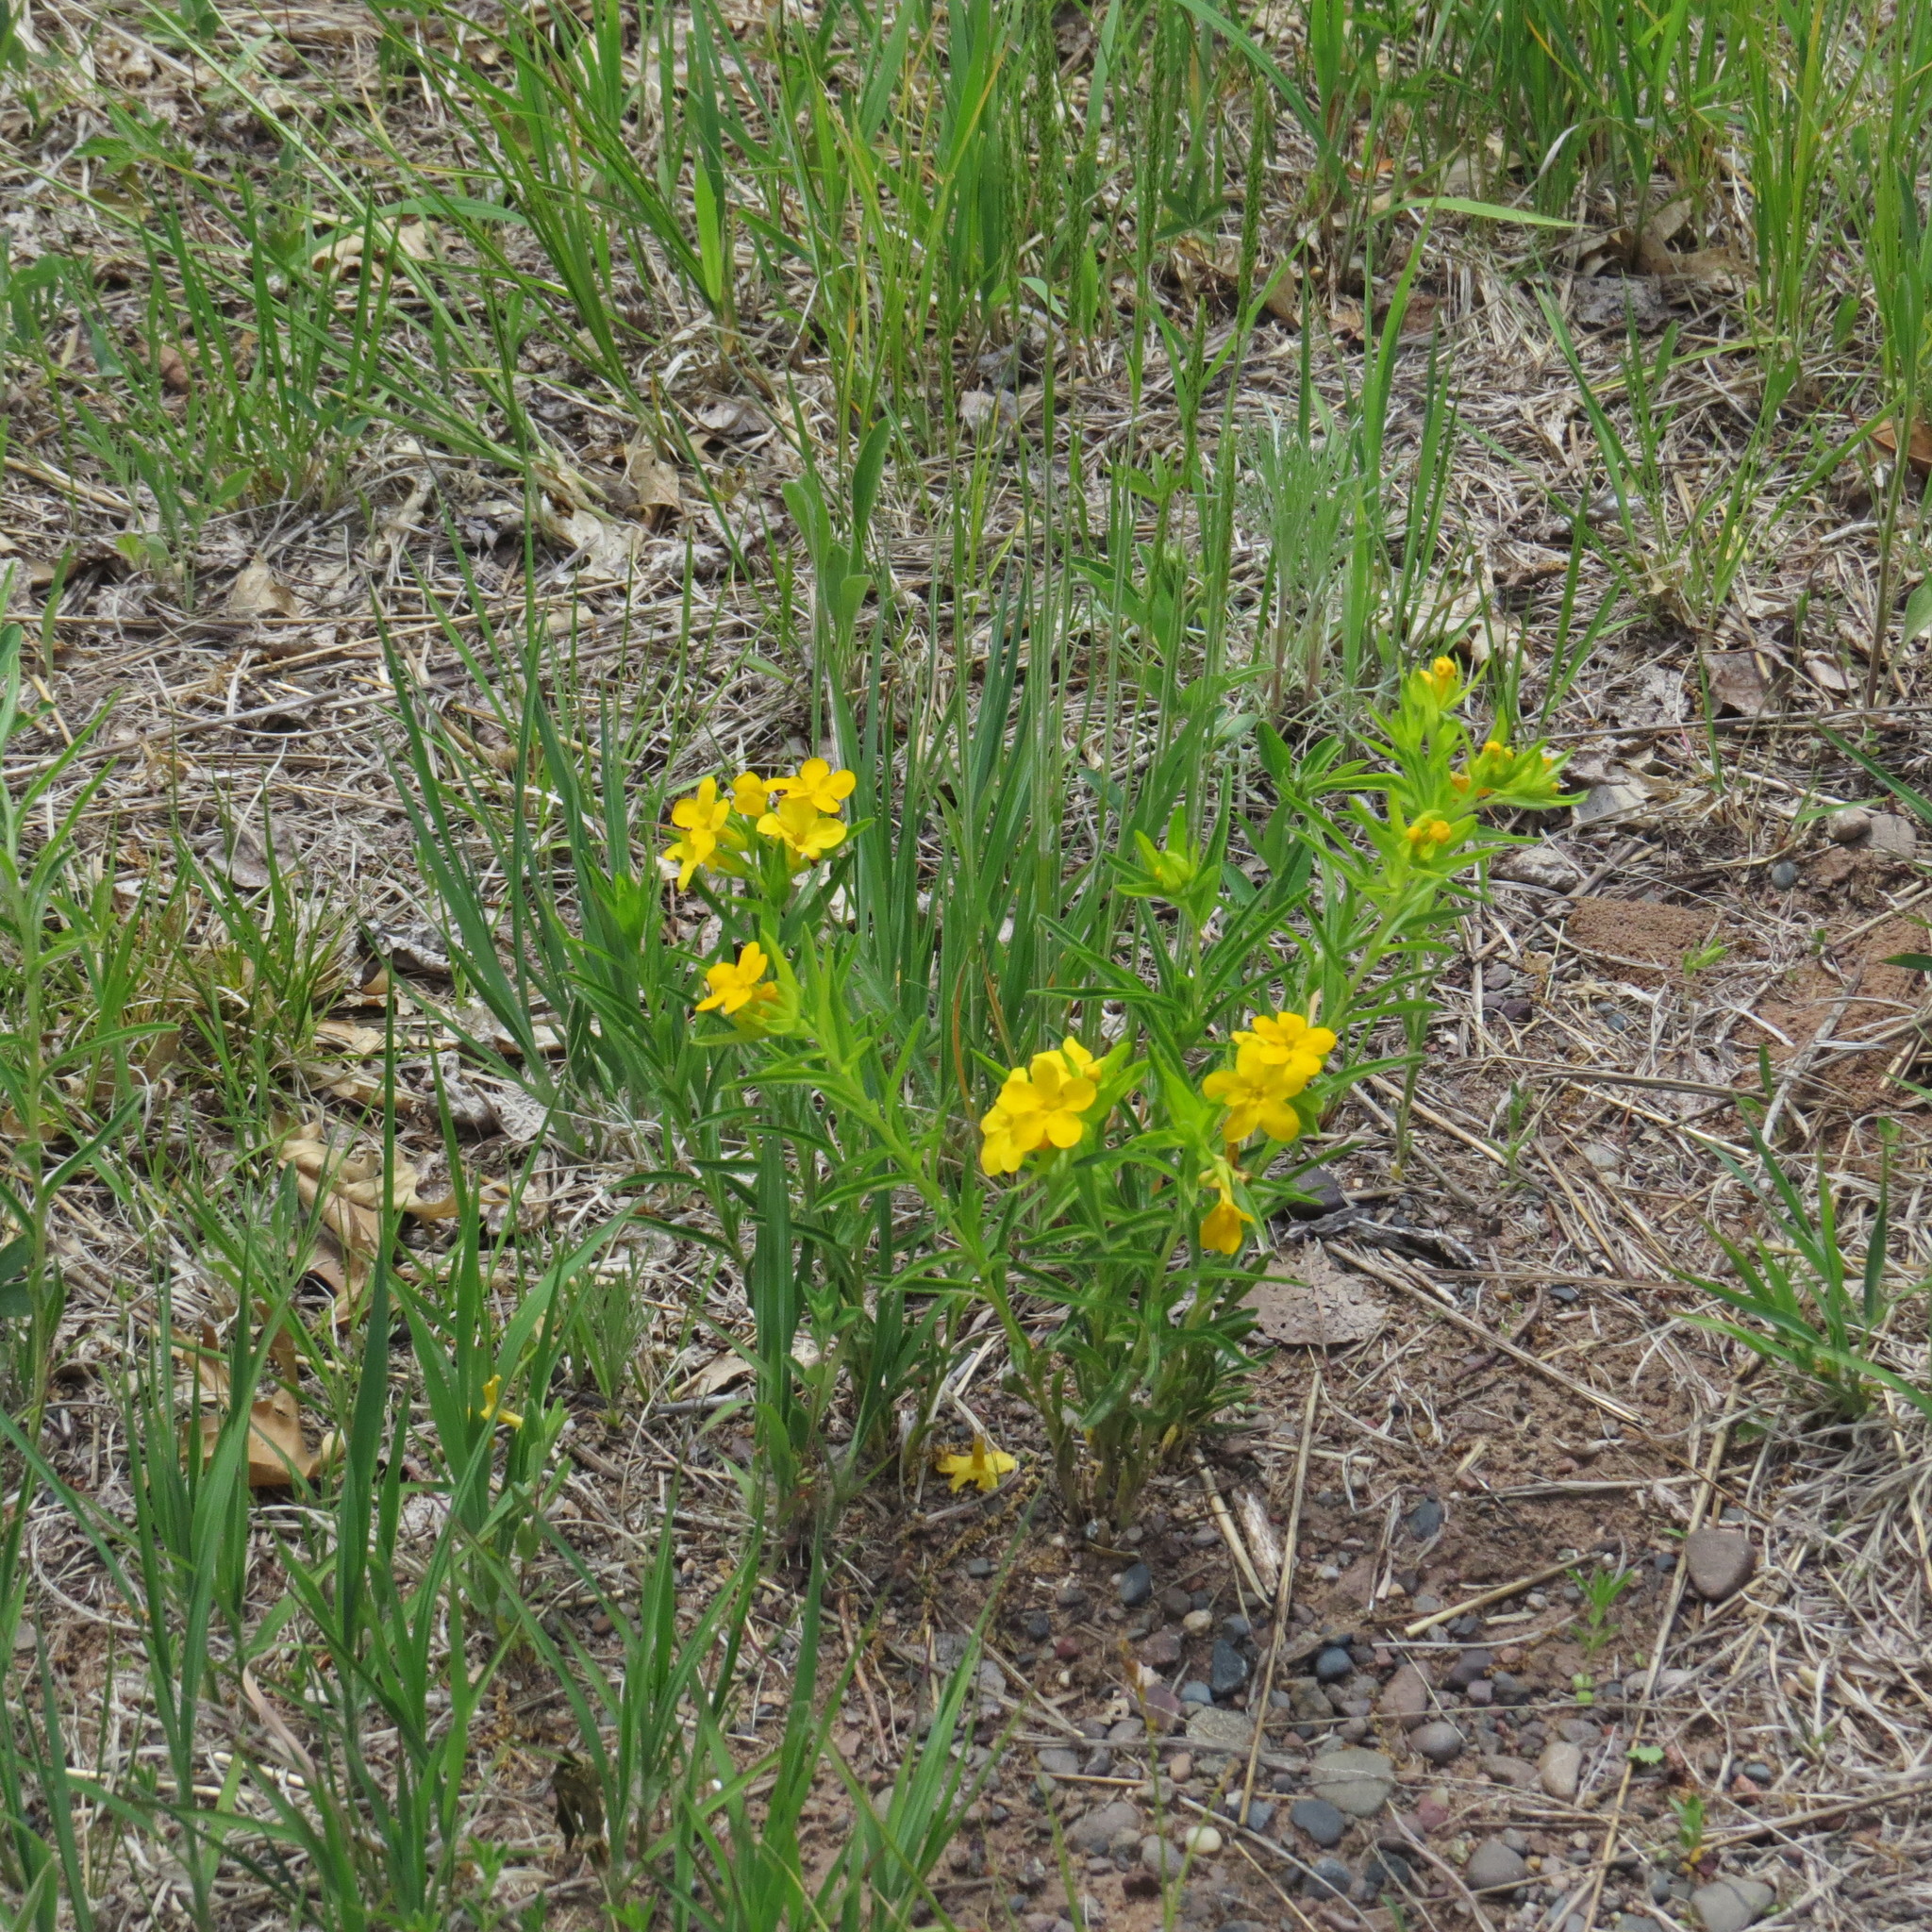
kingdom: Plantae
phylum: Tracheophyta
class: Magnoliopsida
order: Boraginales
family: Boraginaceae
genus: Lithospermum
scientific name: Lithospermum caroliniense
